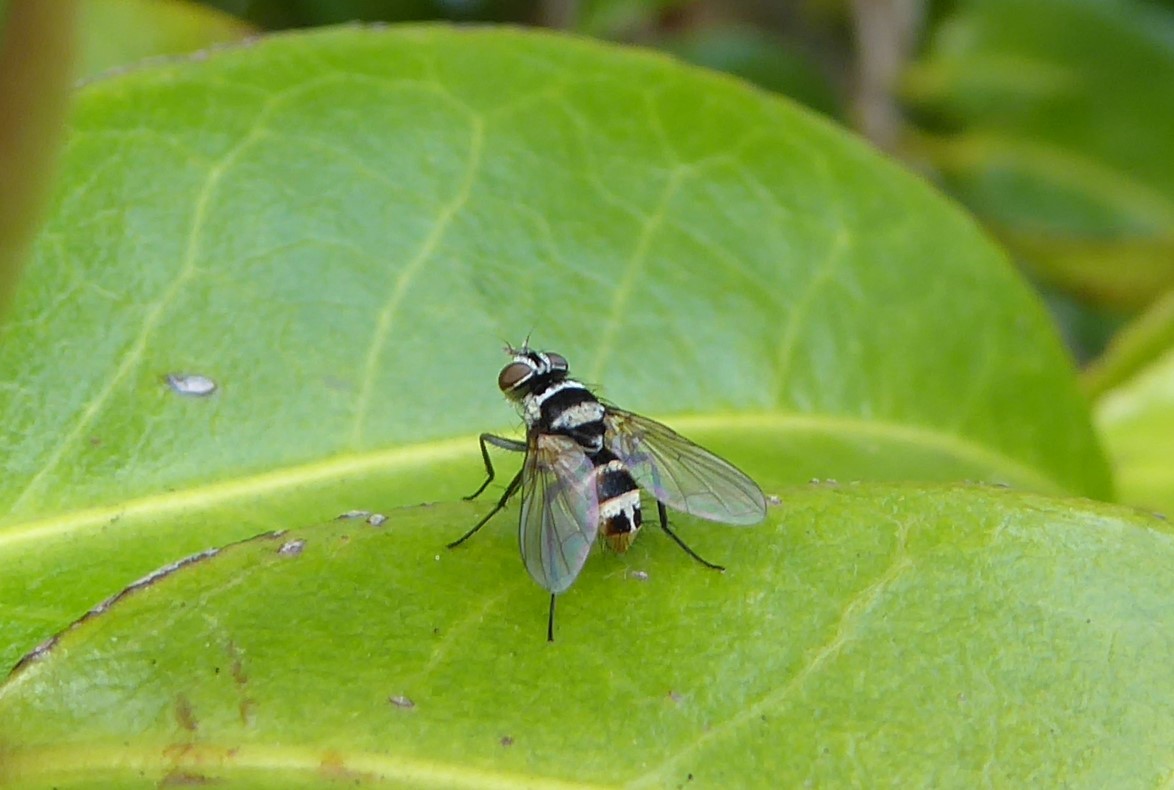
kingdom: Animalia
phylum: Arthropoda
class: Insecta
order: Diptera
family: Tachinidae
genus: Trigonospila
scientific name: Trigonospila brevifacies
